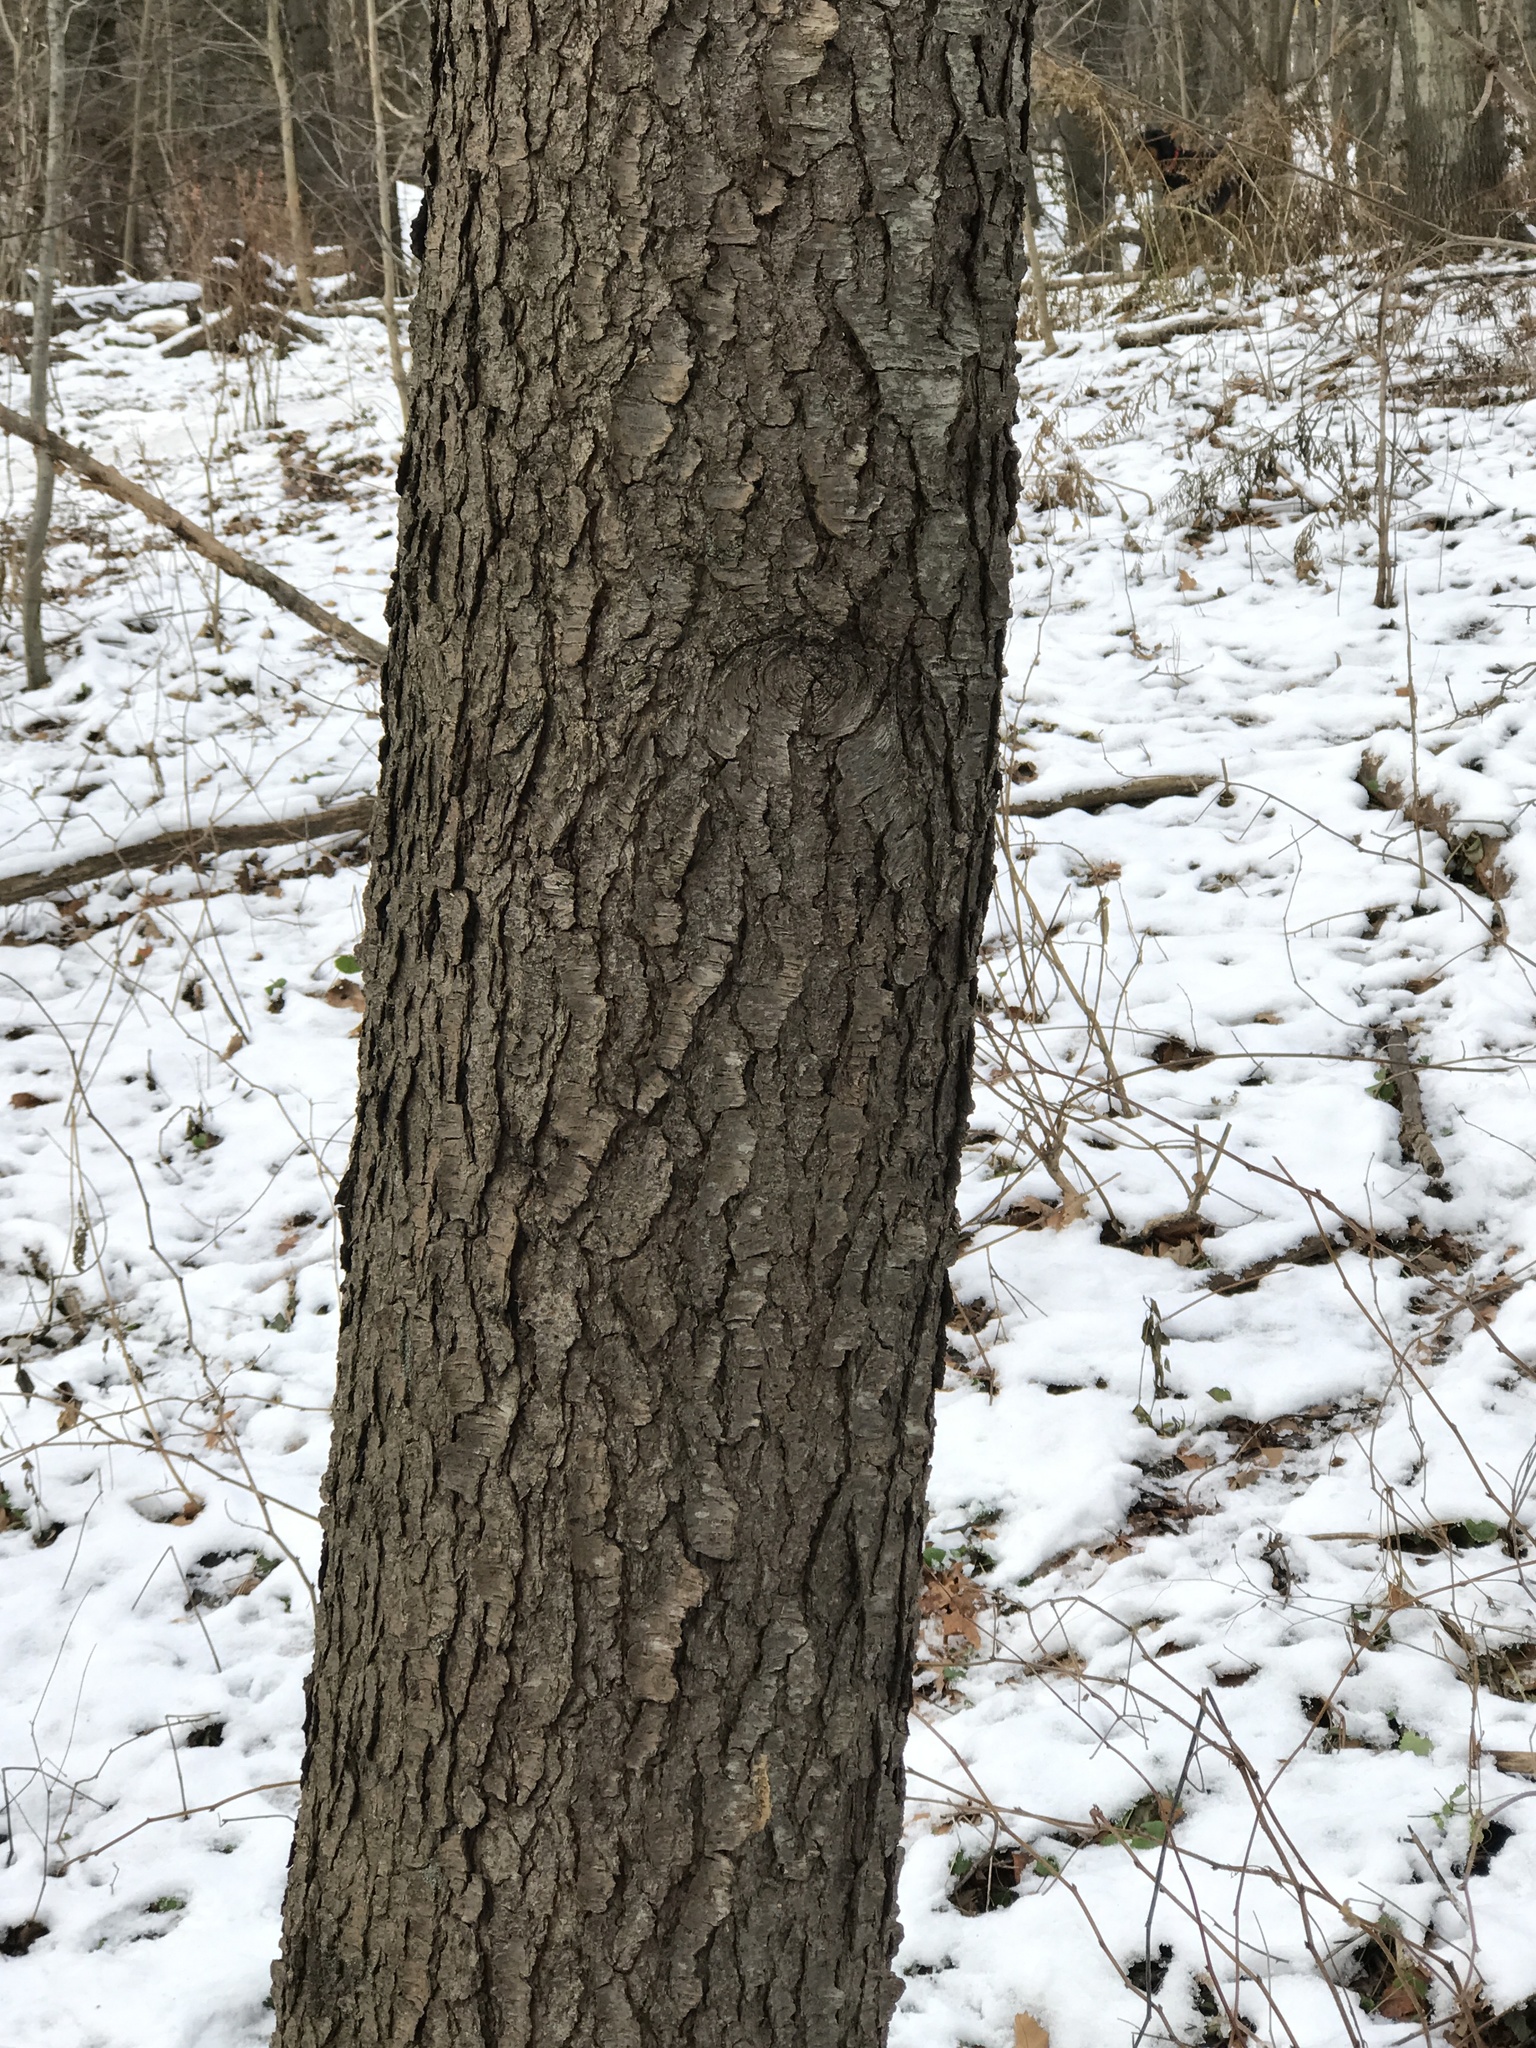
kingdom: Plantae
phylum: Tracheophyta
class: Magnoliopsida
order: Rosales
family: Rosaceae
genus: Prunus
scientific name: Prunus serotina
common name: Black cherry
